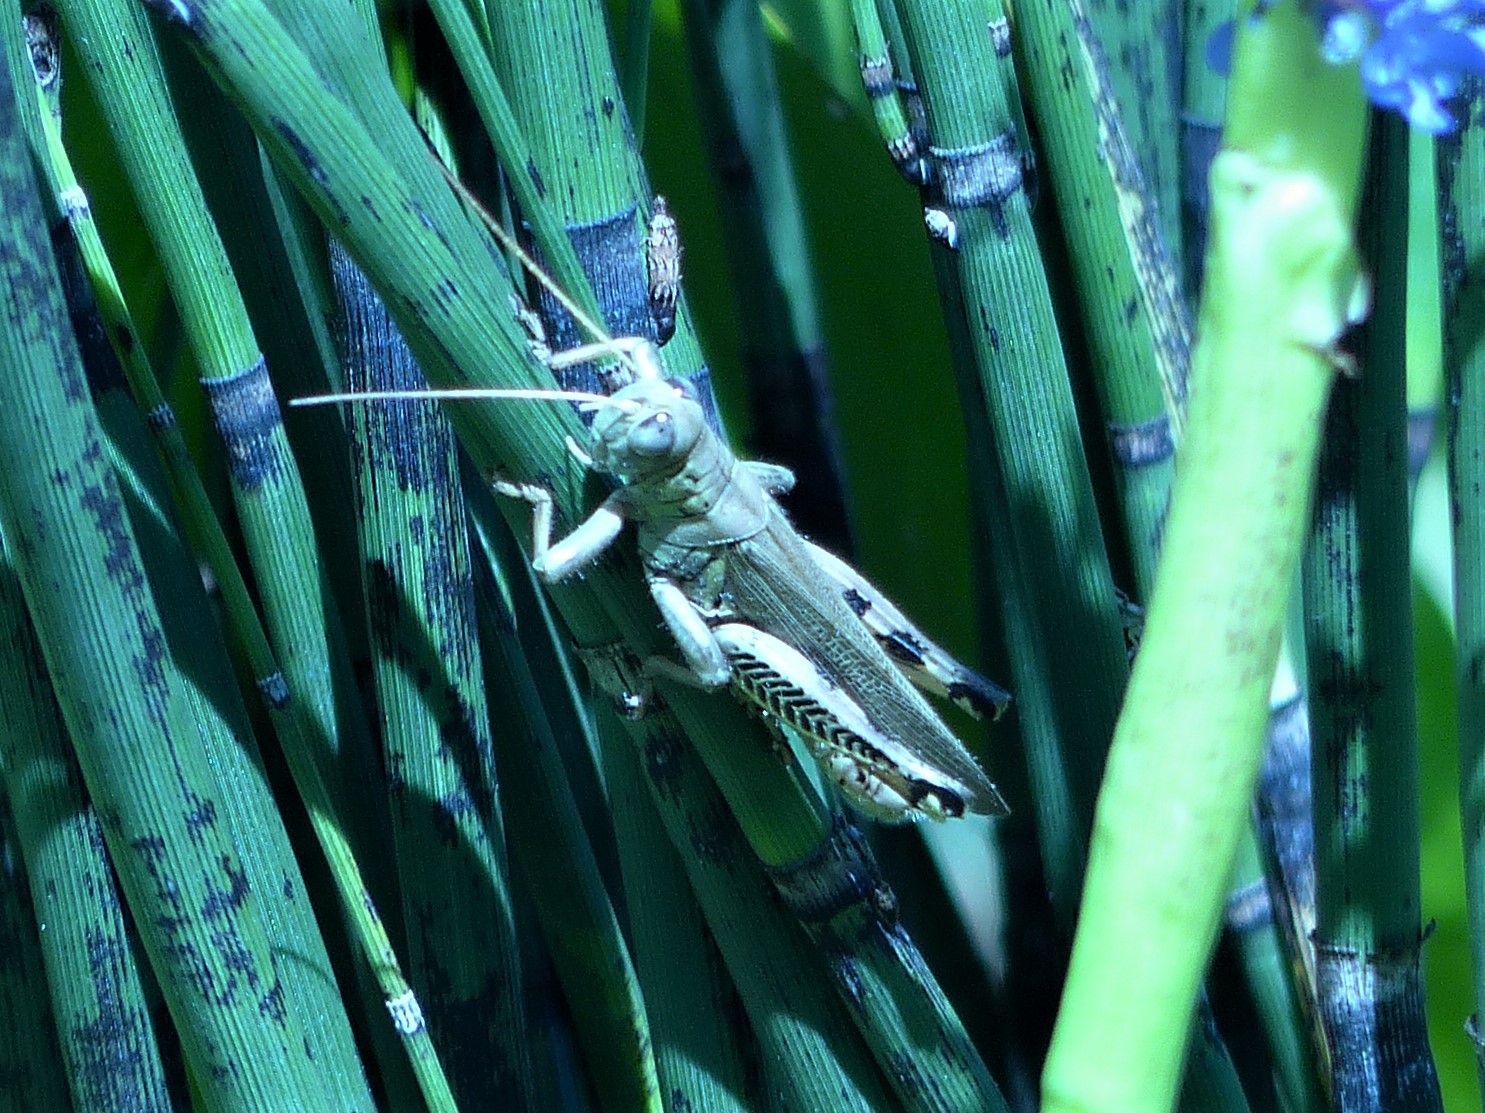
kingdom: Animalia
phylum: Arthropoda
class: Insecta
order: Orthoptera
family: Acrididae
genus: Melanoplus
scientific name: Melanoplus differentialis
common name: Differential grasshopper
